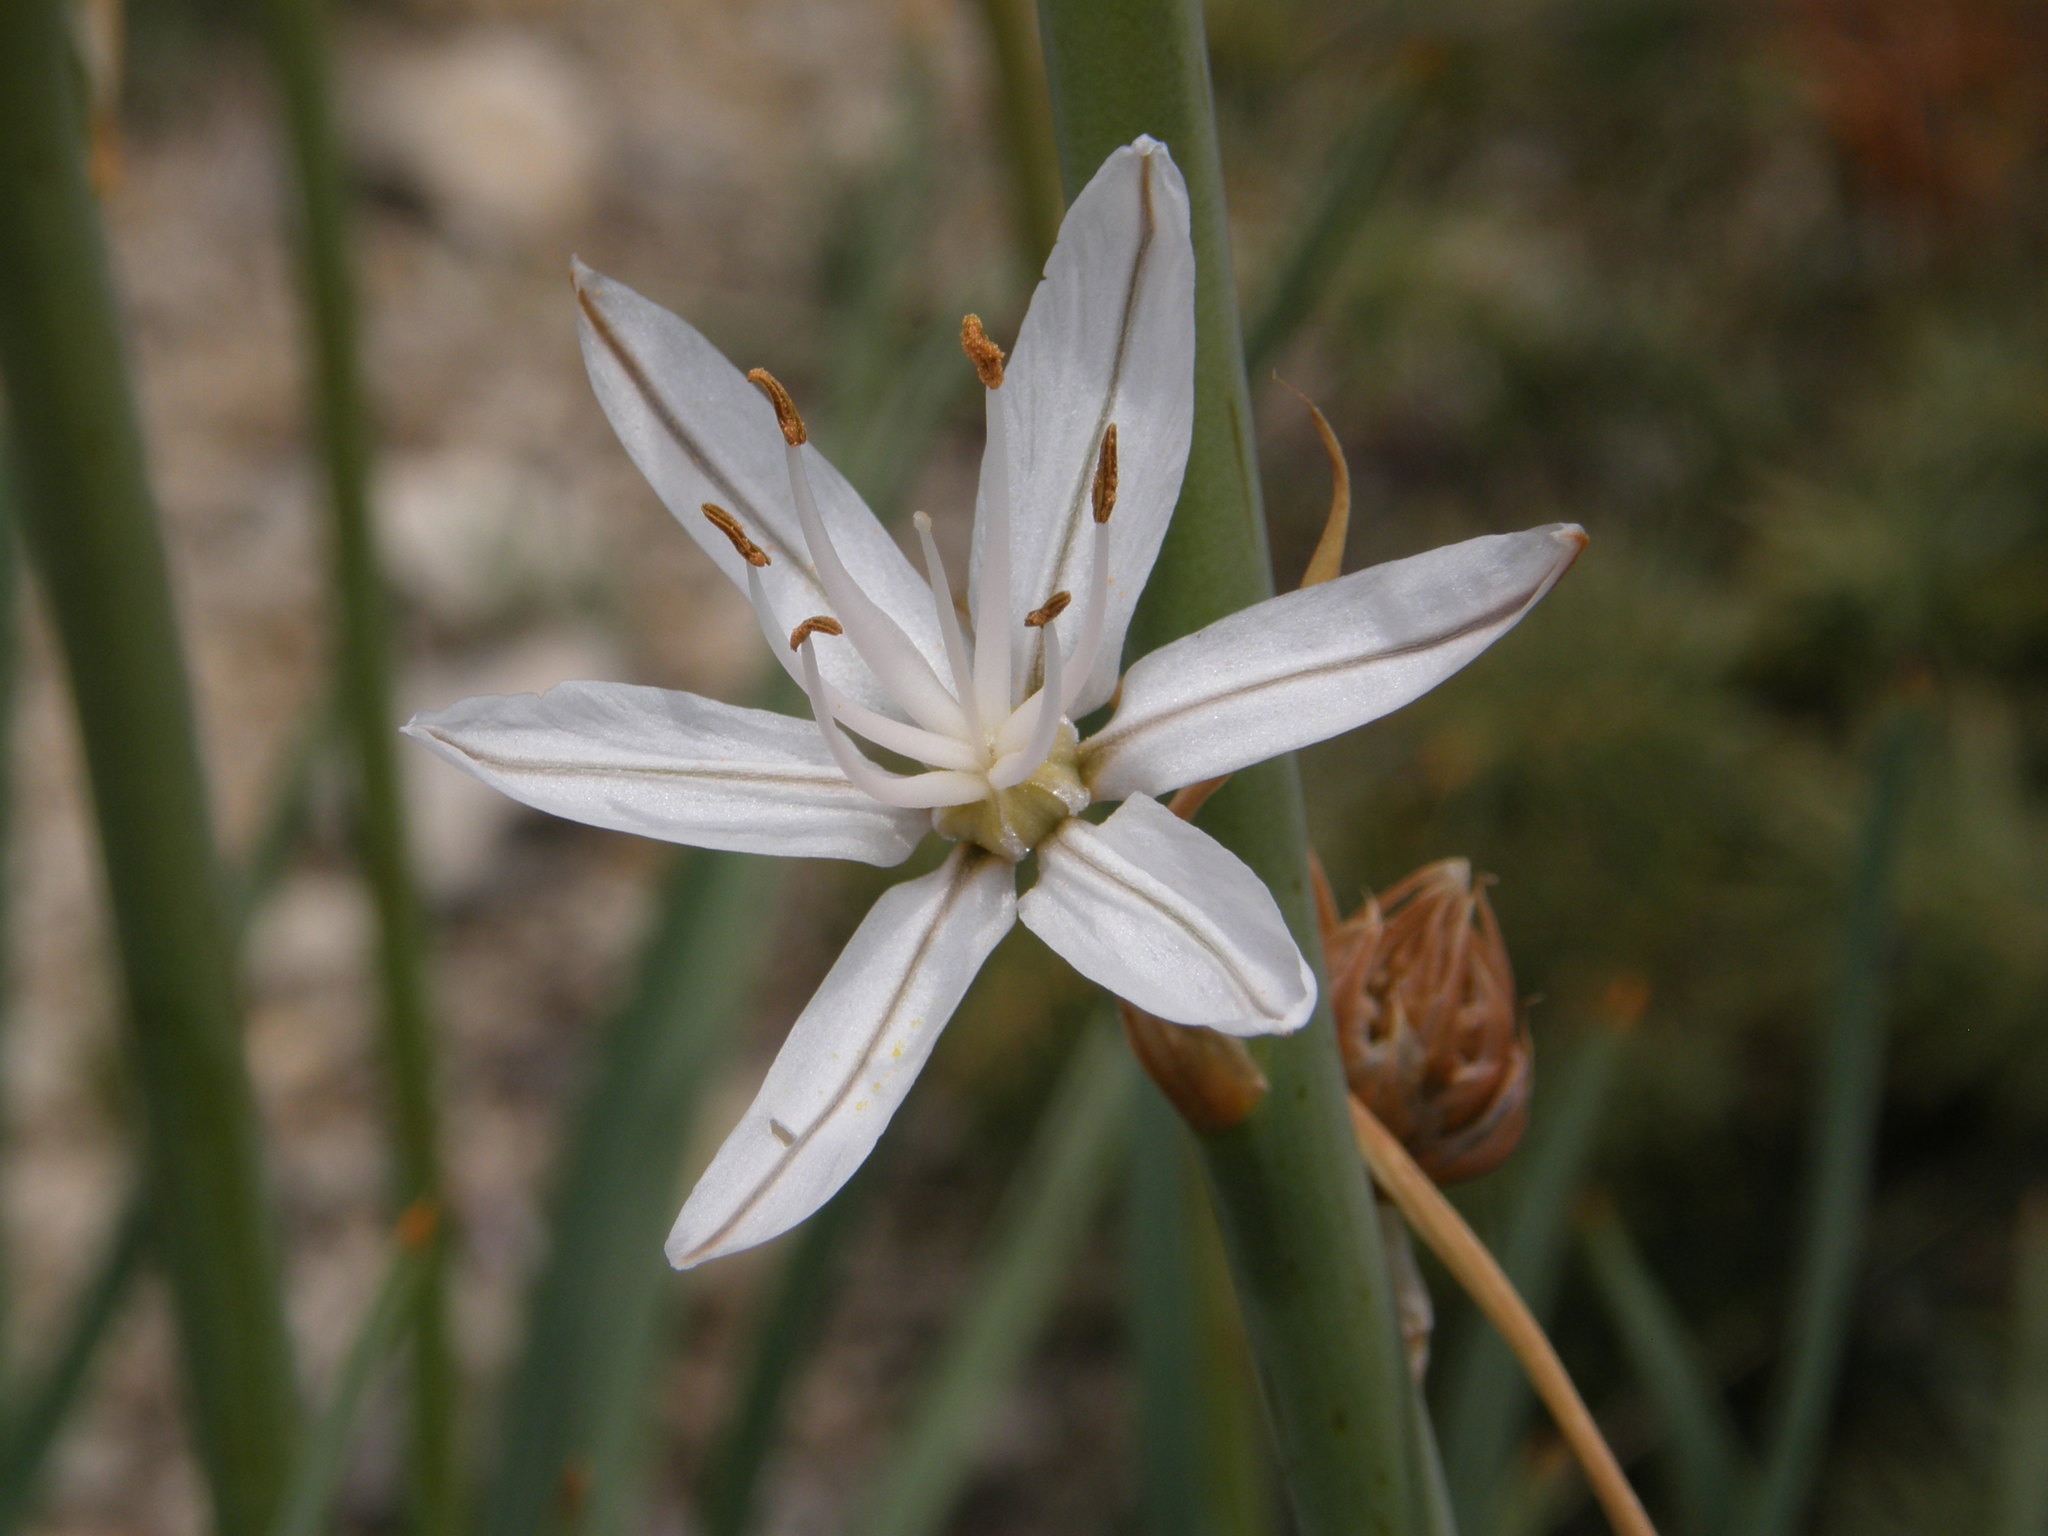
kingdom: Plantae
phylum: Tracheophyta
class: Liliopsida
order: Asparagales
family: Asphodelaceae
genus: Asphodelus
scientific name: Asphodelus albus
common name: White asphodel
